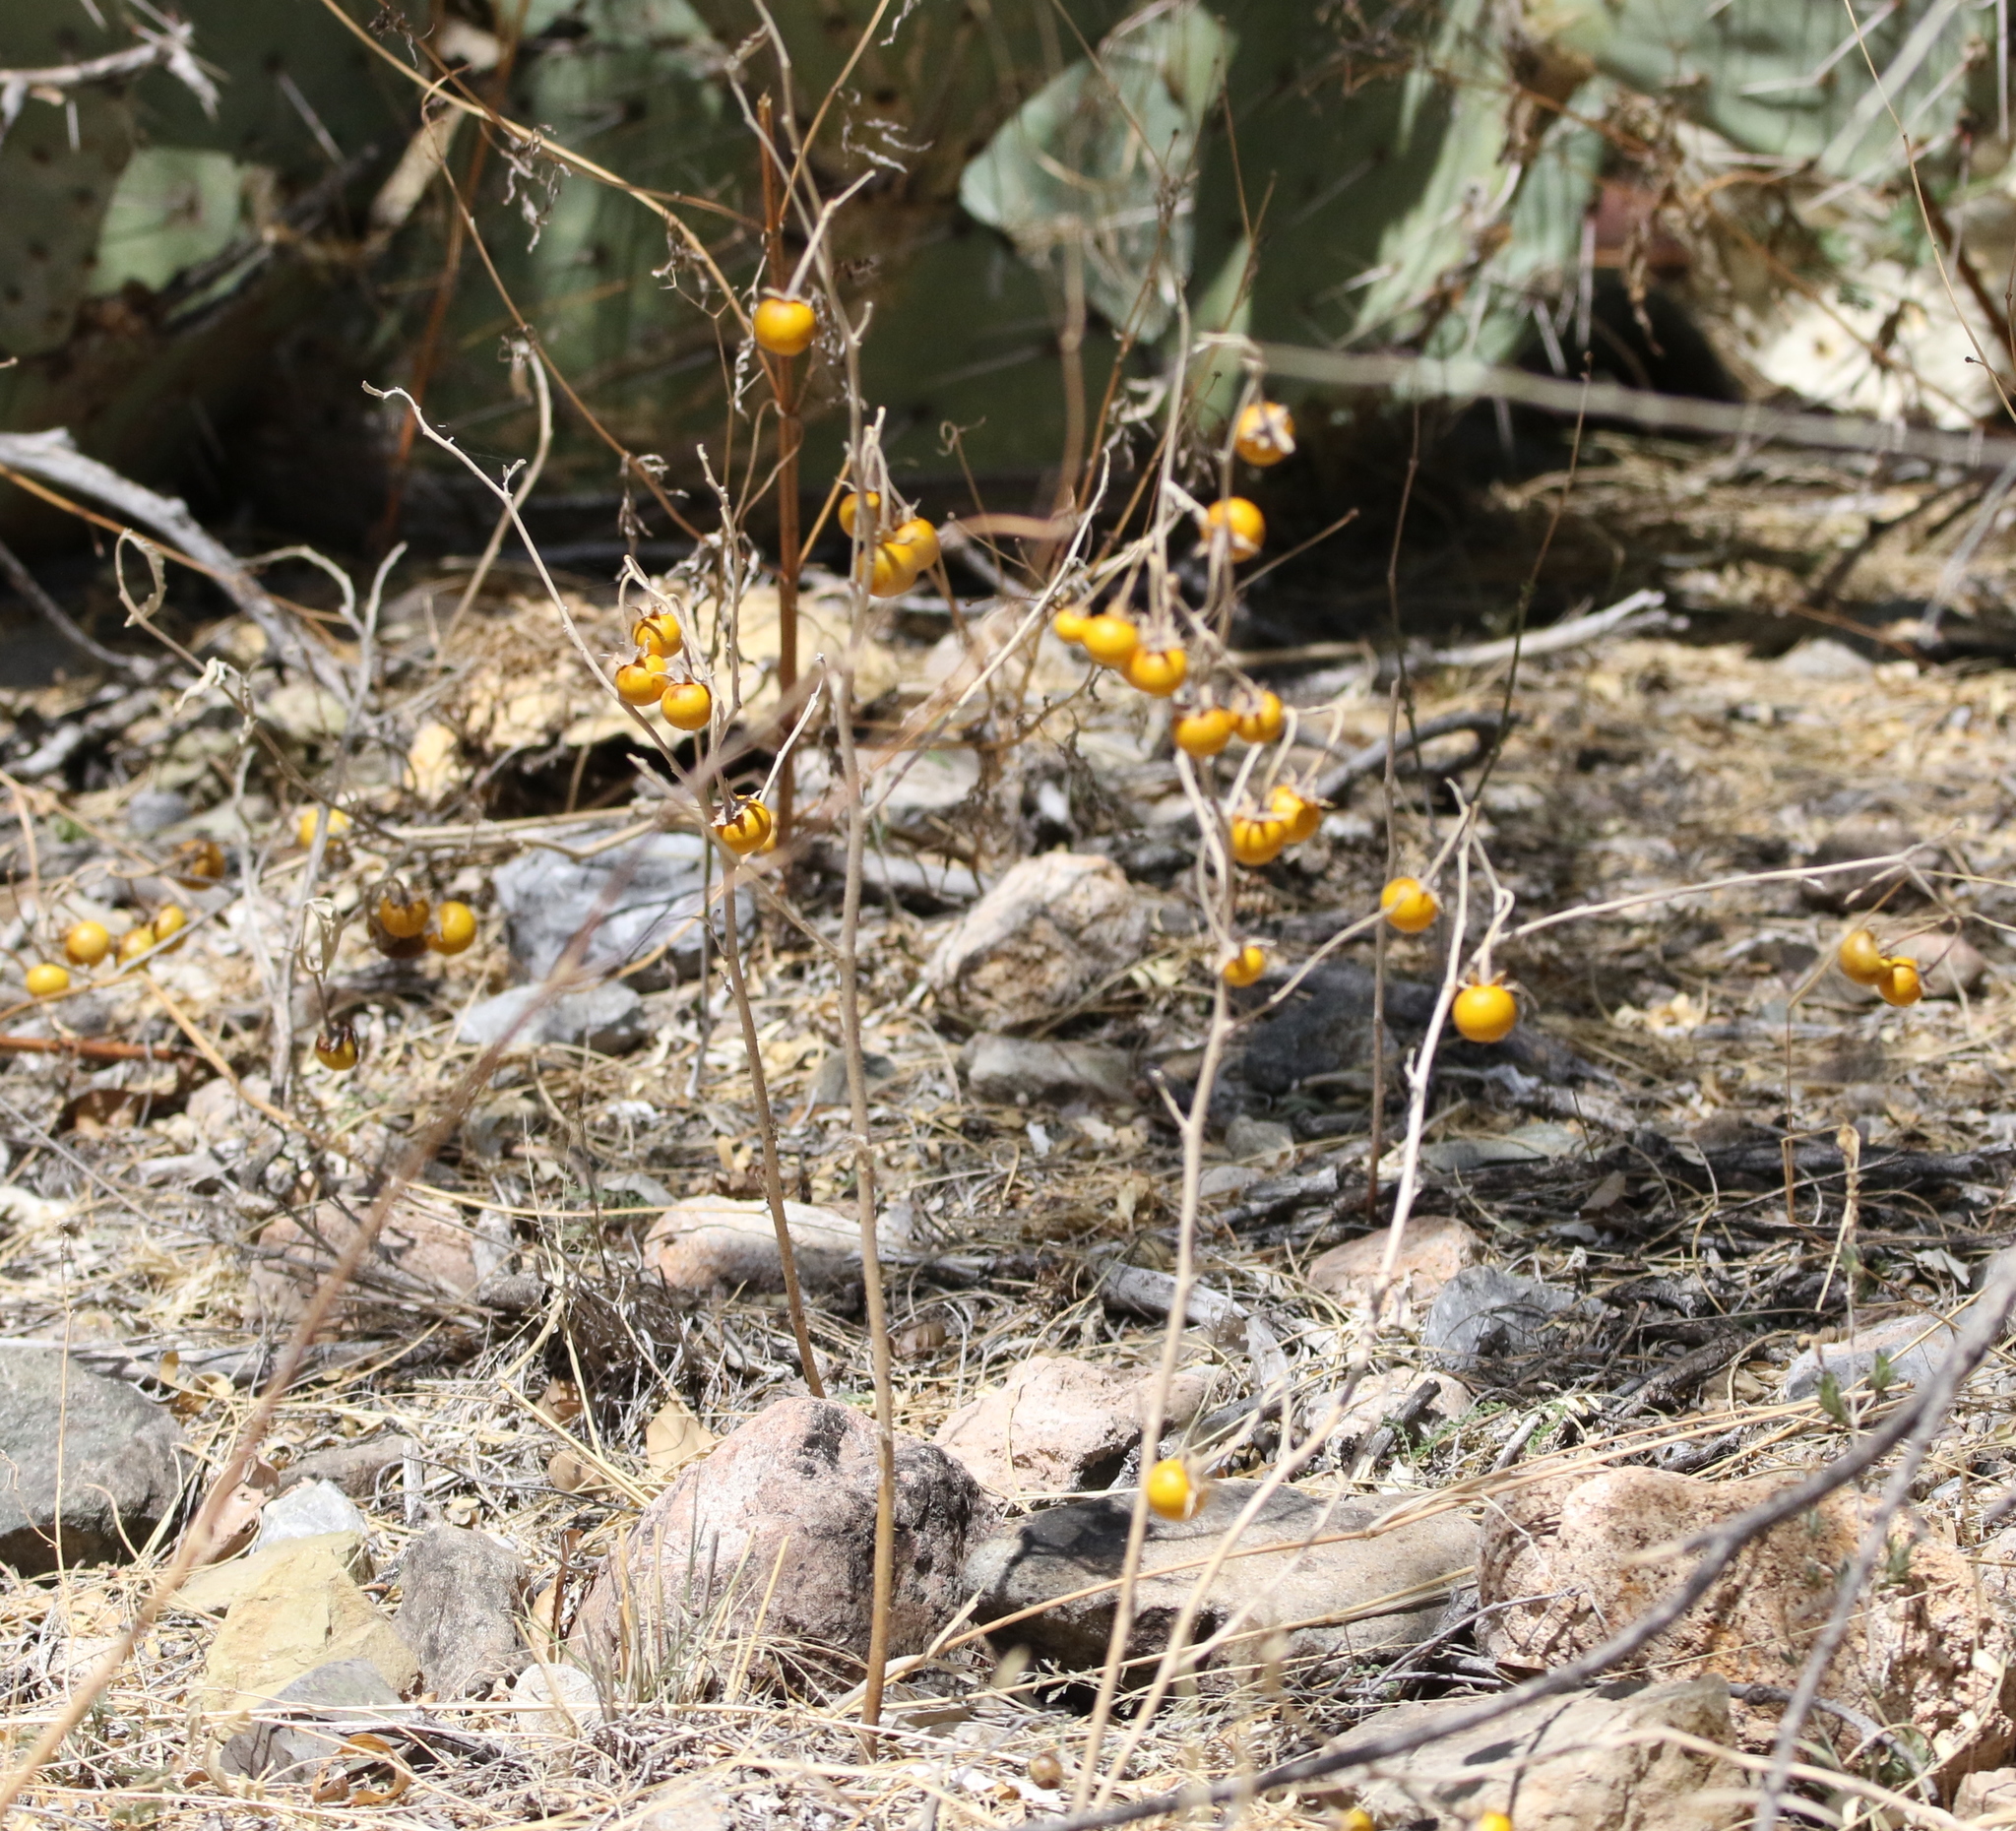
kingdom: Plantae
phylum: Tracheophyta
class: Magnoliopsida
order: Solanales
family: Solanaceae
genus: Solanum
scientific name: Solanum elaeagnifolium
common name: Silverleaf nightshade
